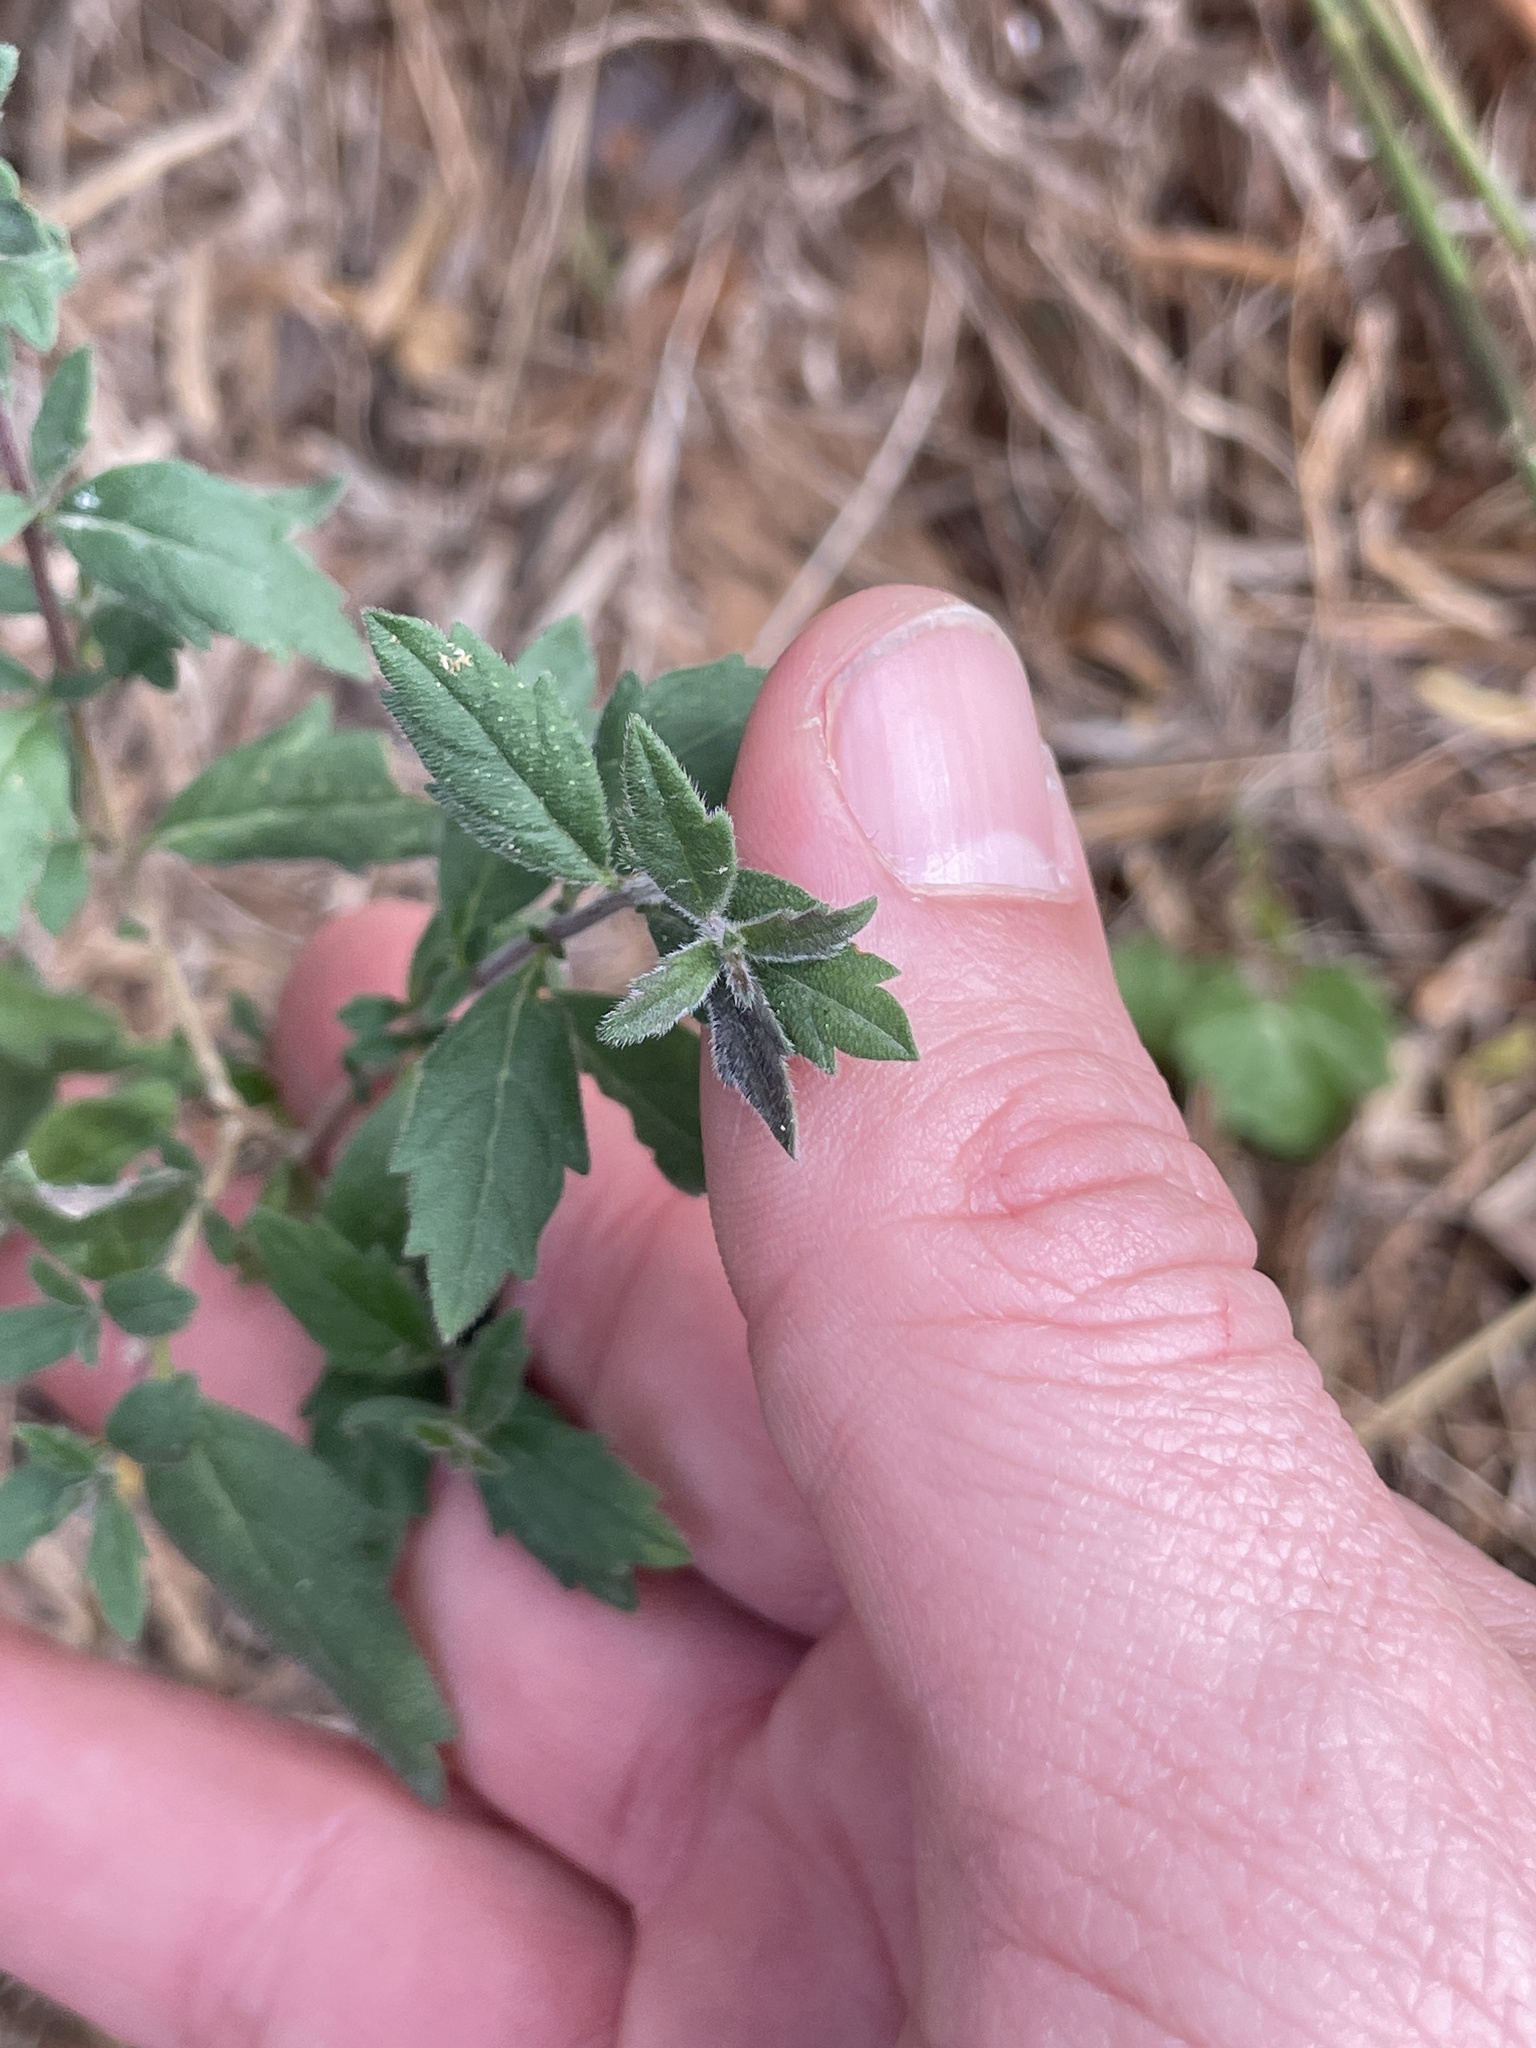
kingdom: Plantae
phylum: Tracheophyta
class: Magnoliopsida
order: Lamiales
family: Verbenaceae
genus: Aloysia
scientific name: Aloysia gratissima
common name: Common bee-brush
